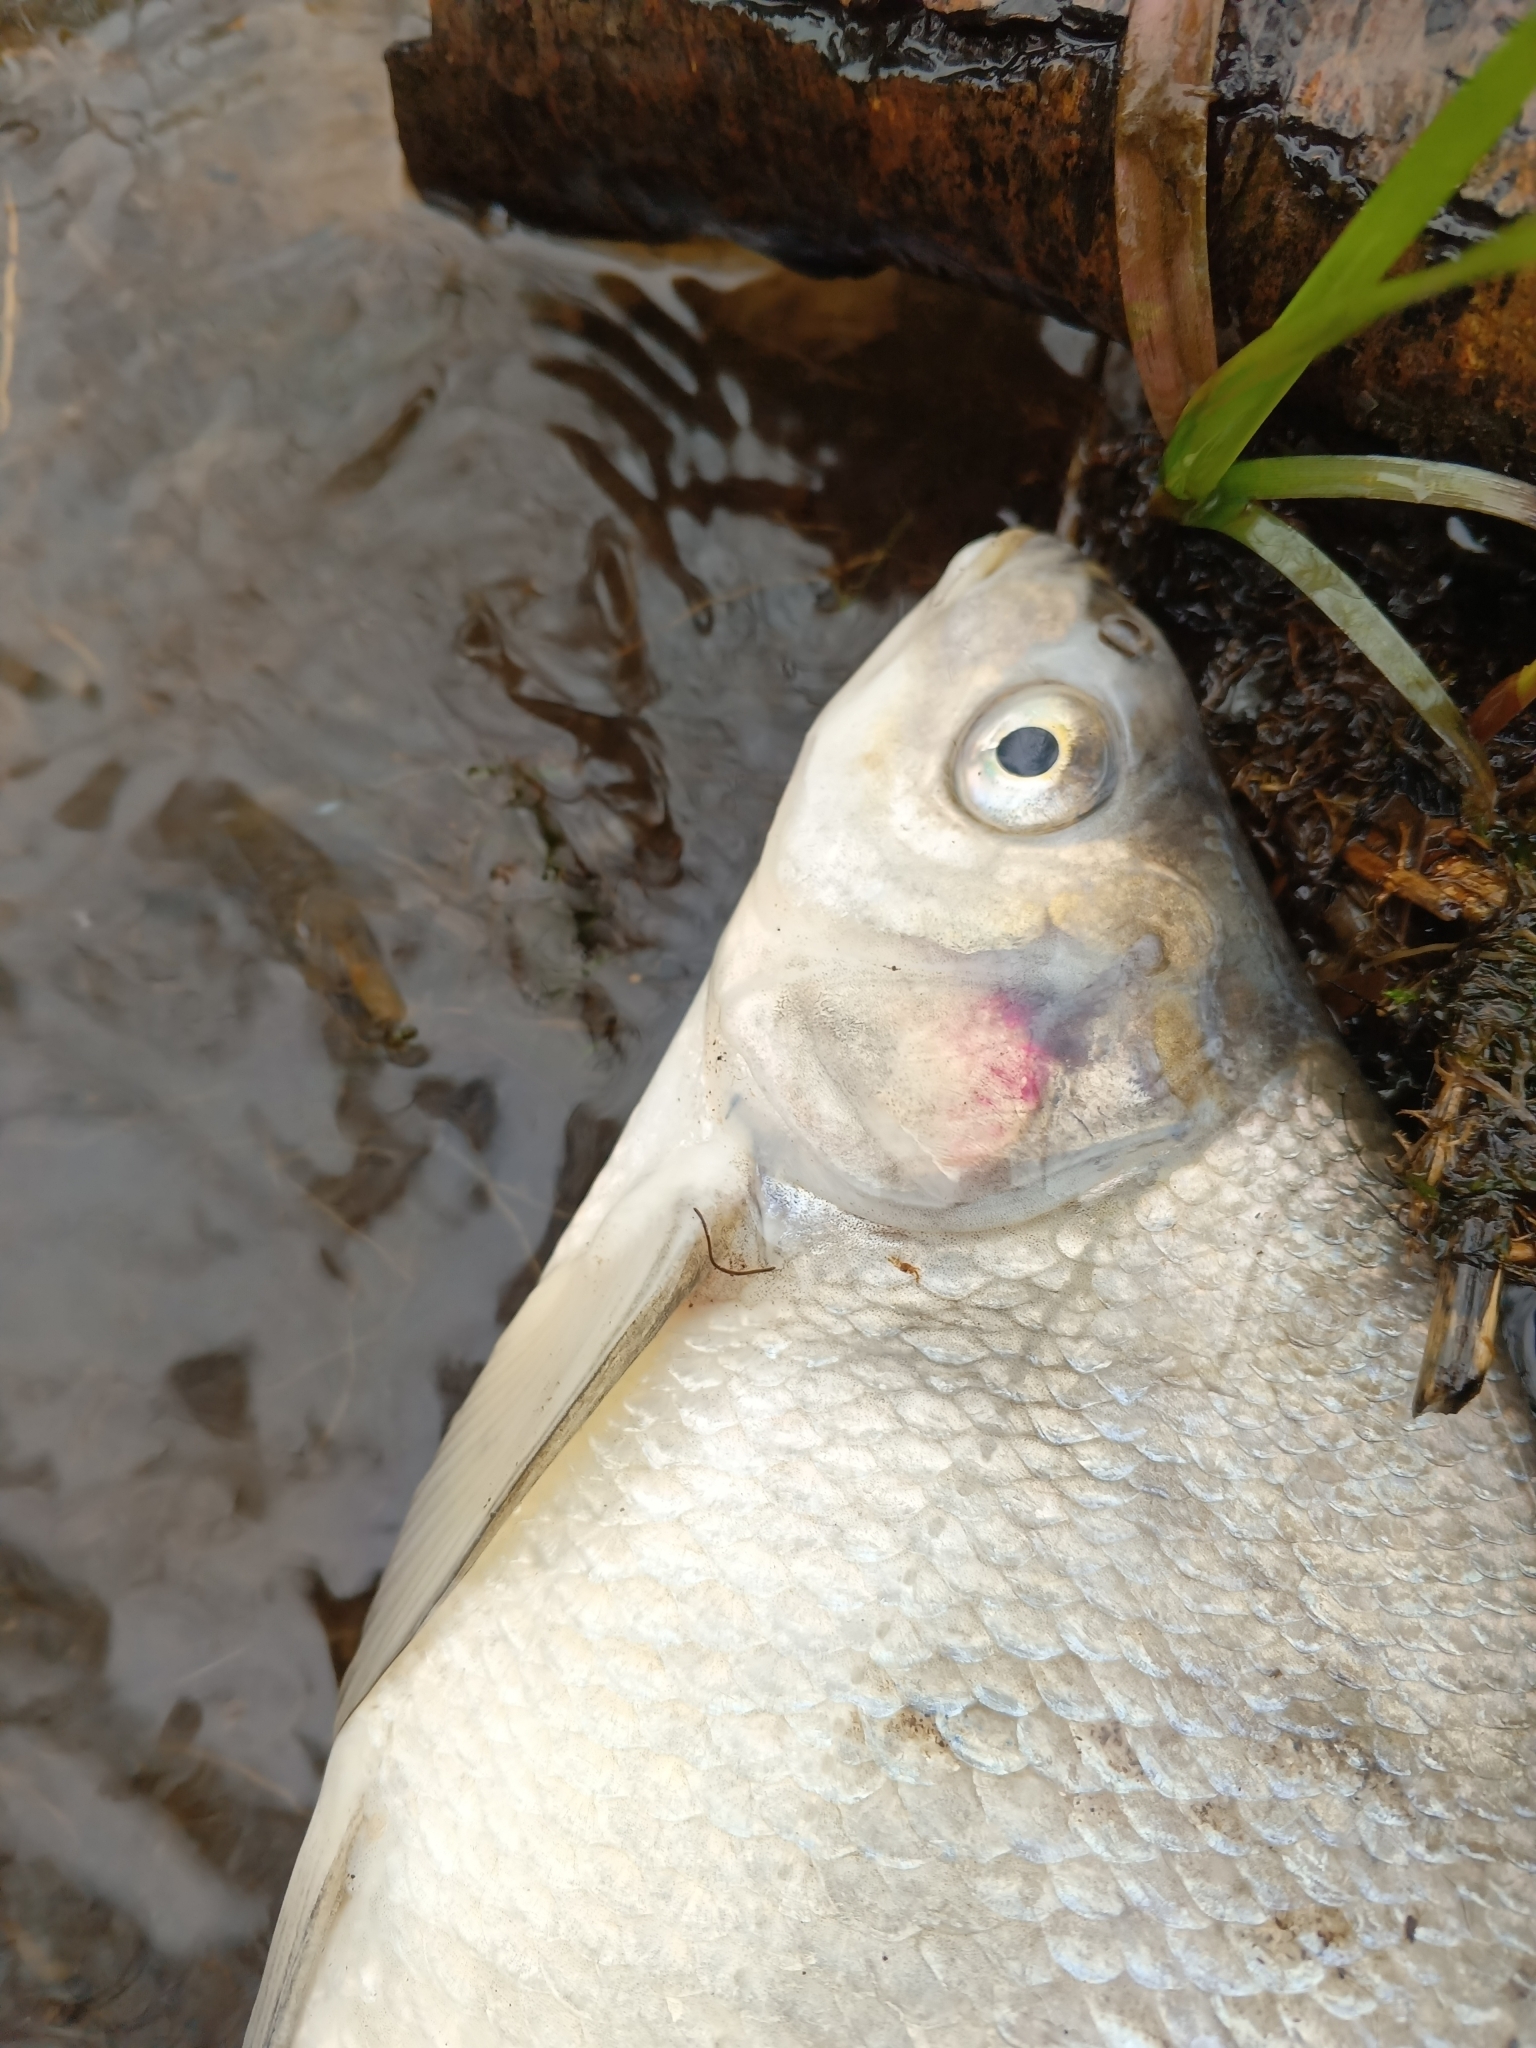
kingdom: Animalia
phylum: Chordata
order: Cypriniformes
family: Cyprinidae
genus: Abramis
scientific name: Abramis brama
